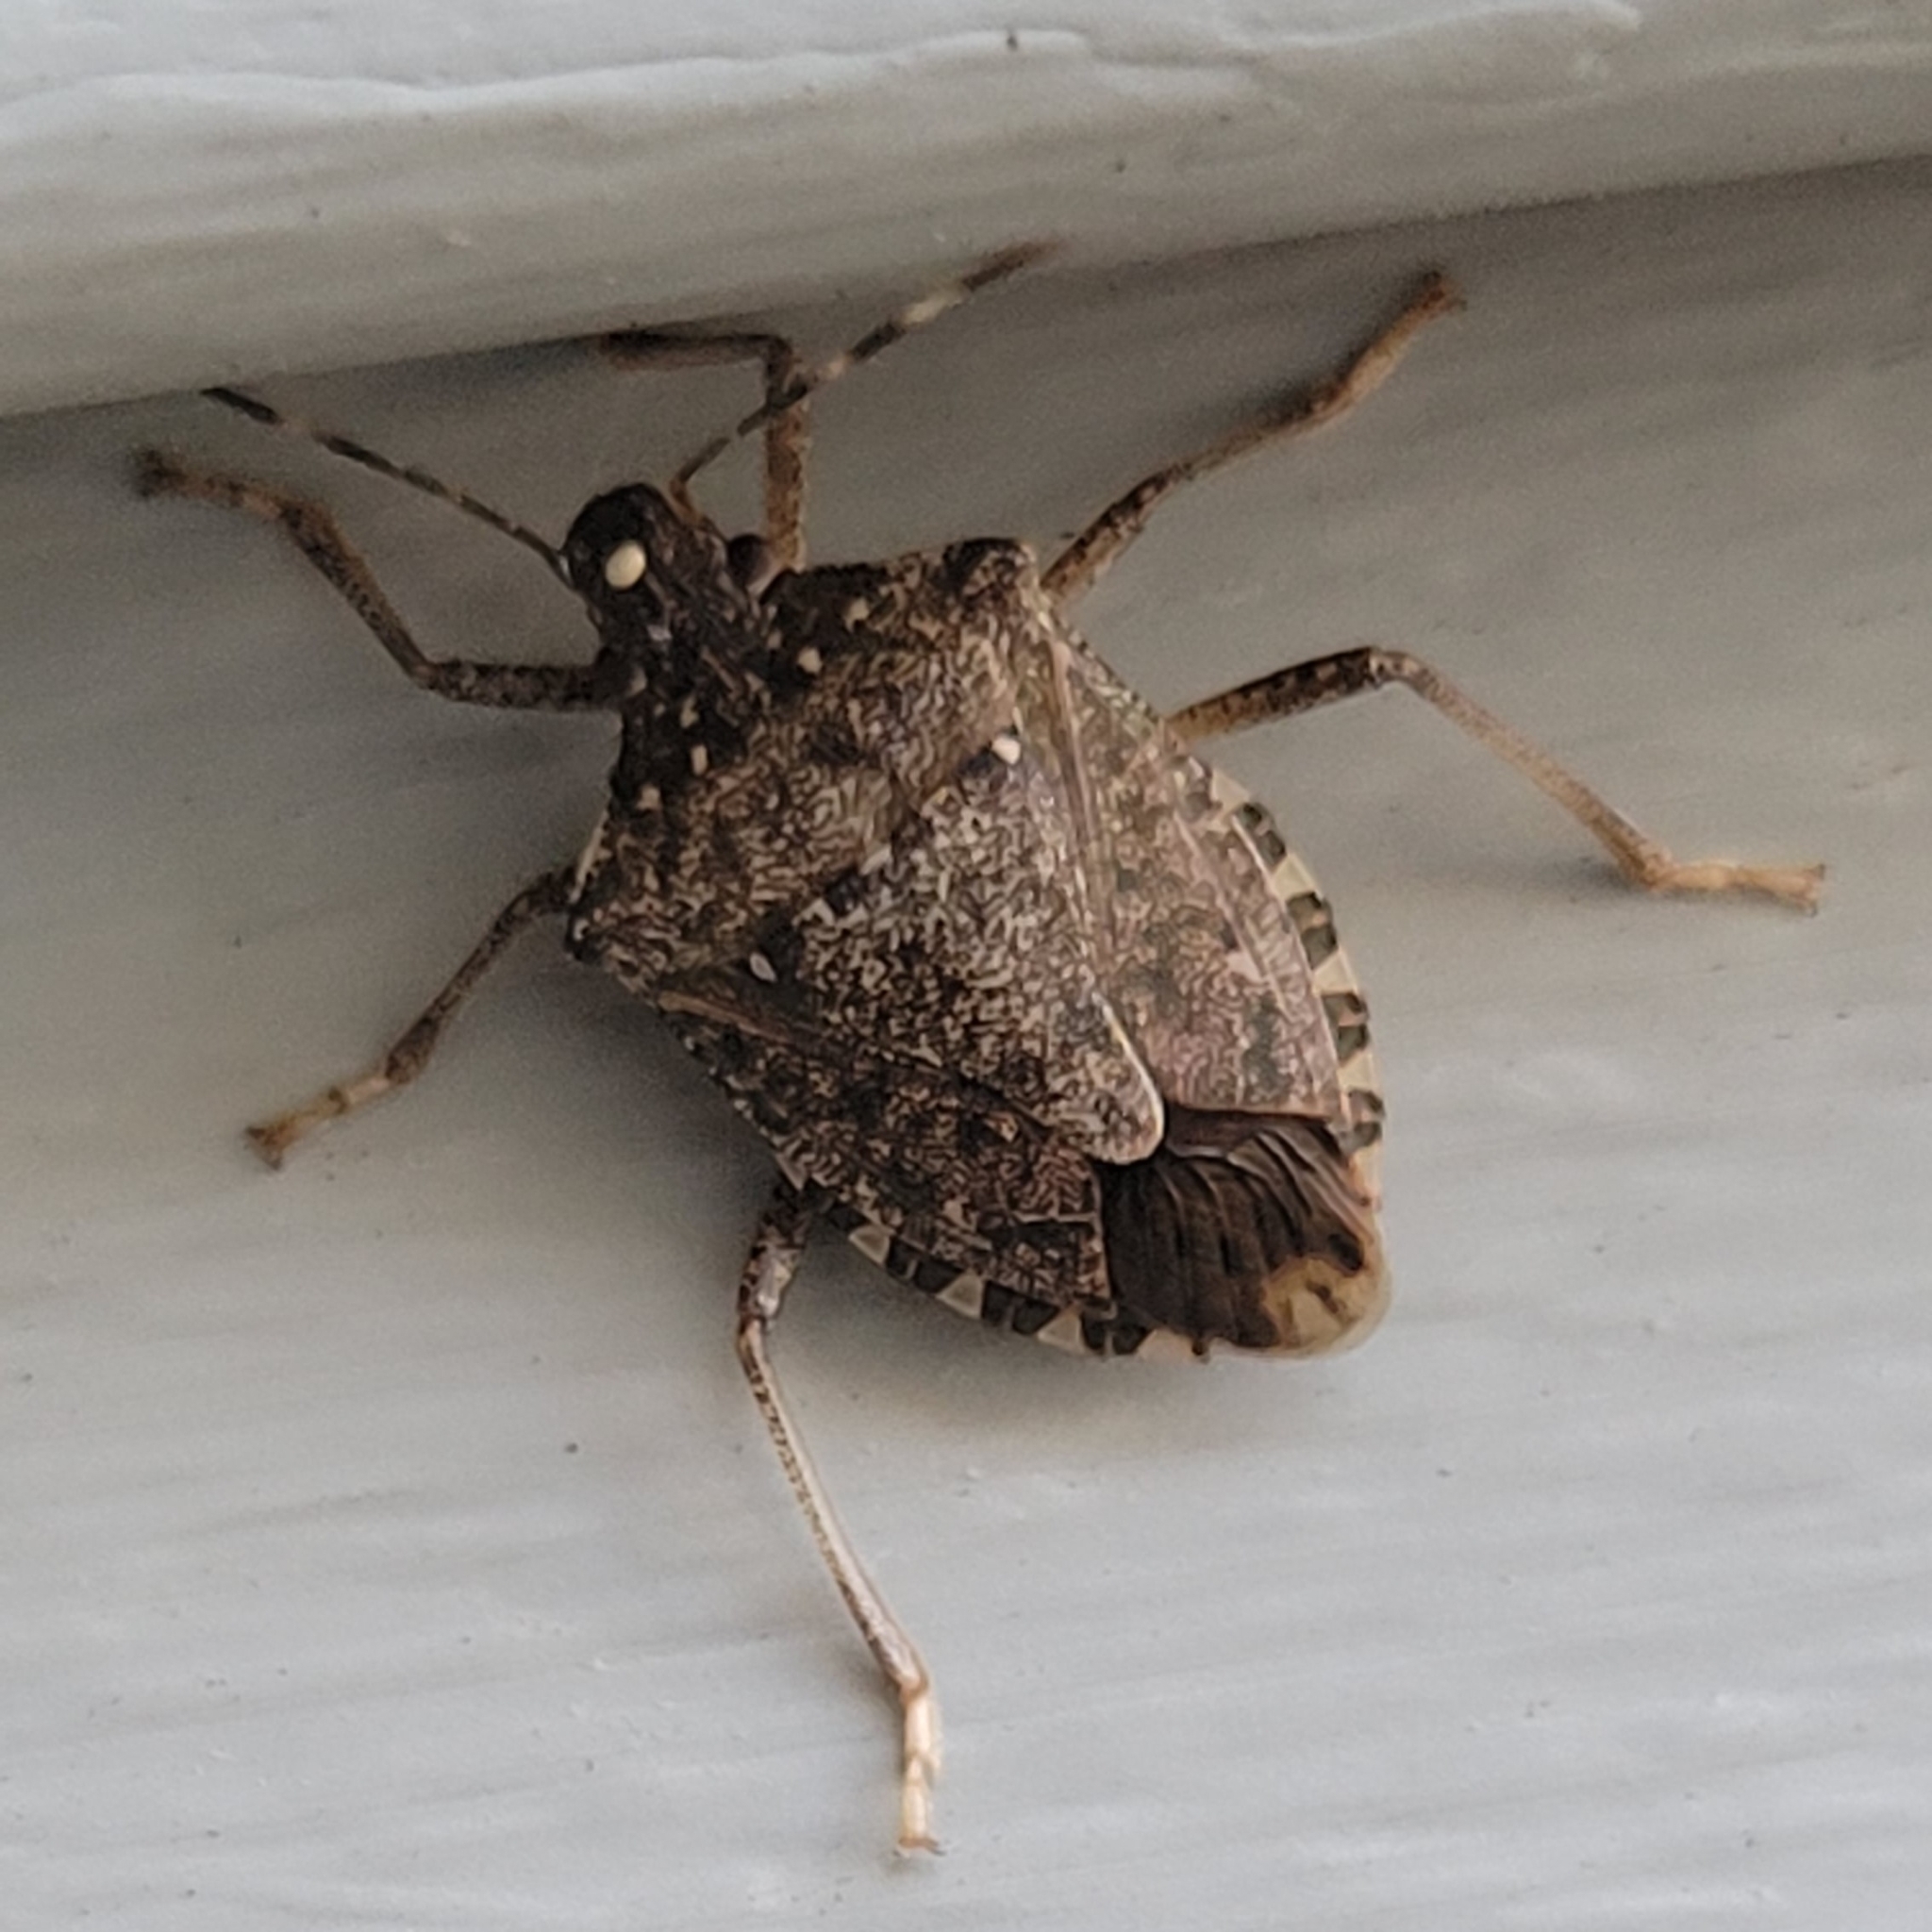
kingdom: Animalia
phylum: Arthropoda
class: Insecta
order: Hemiptera
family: Pentatomidae
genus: Halyomorpha
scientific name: Halyomorpha halys
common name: Brown marmorated stink bug
